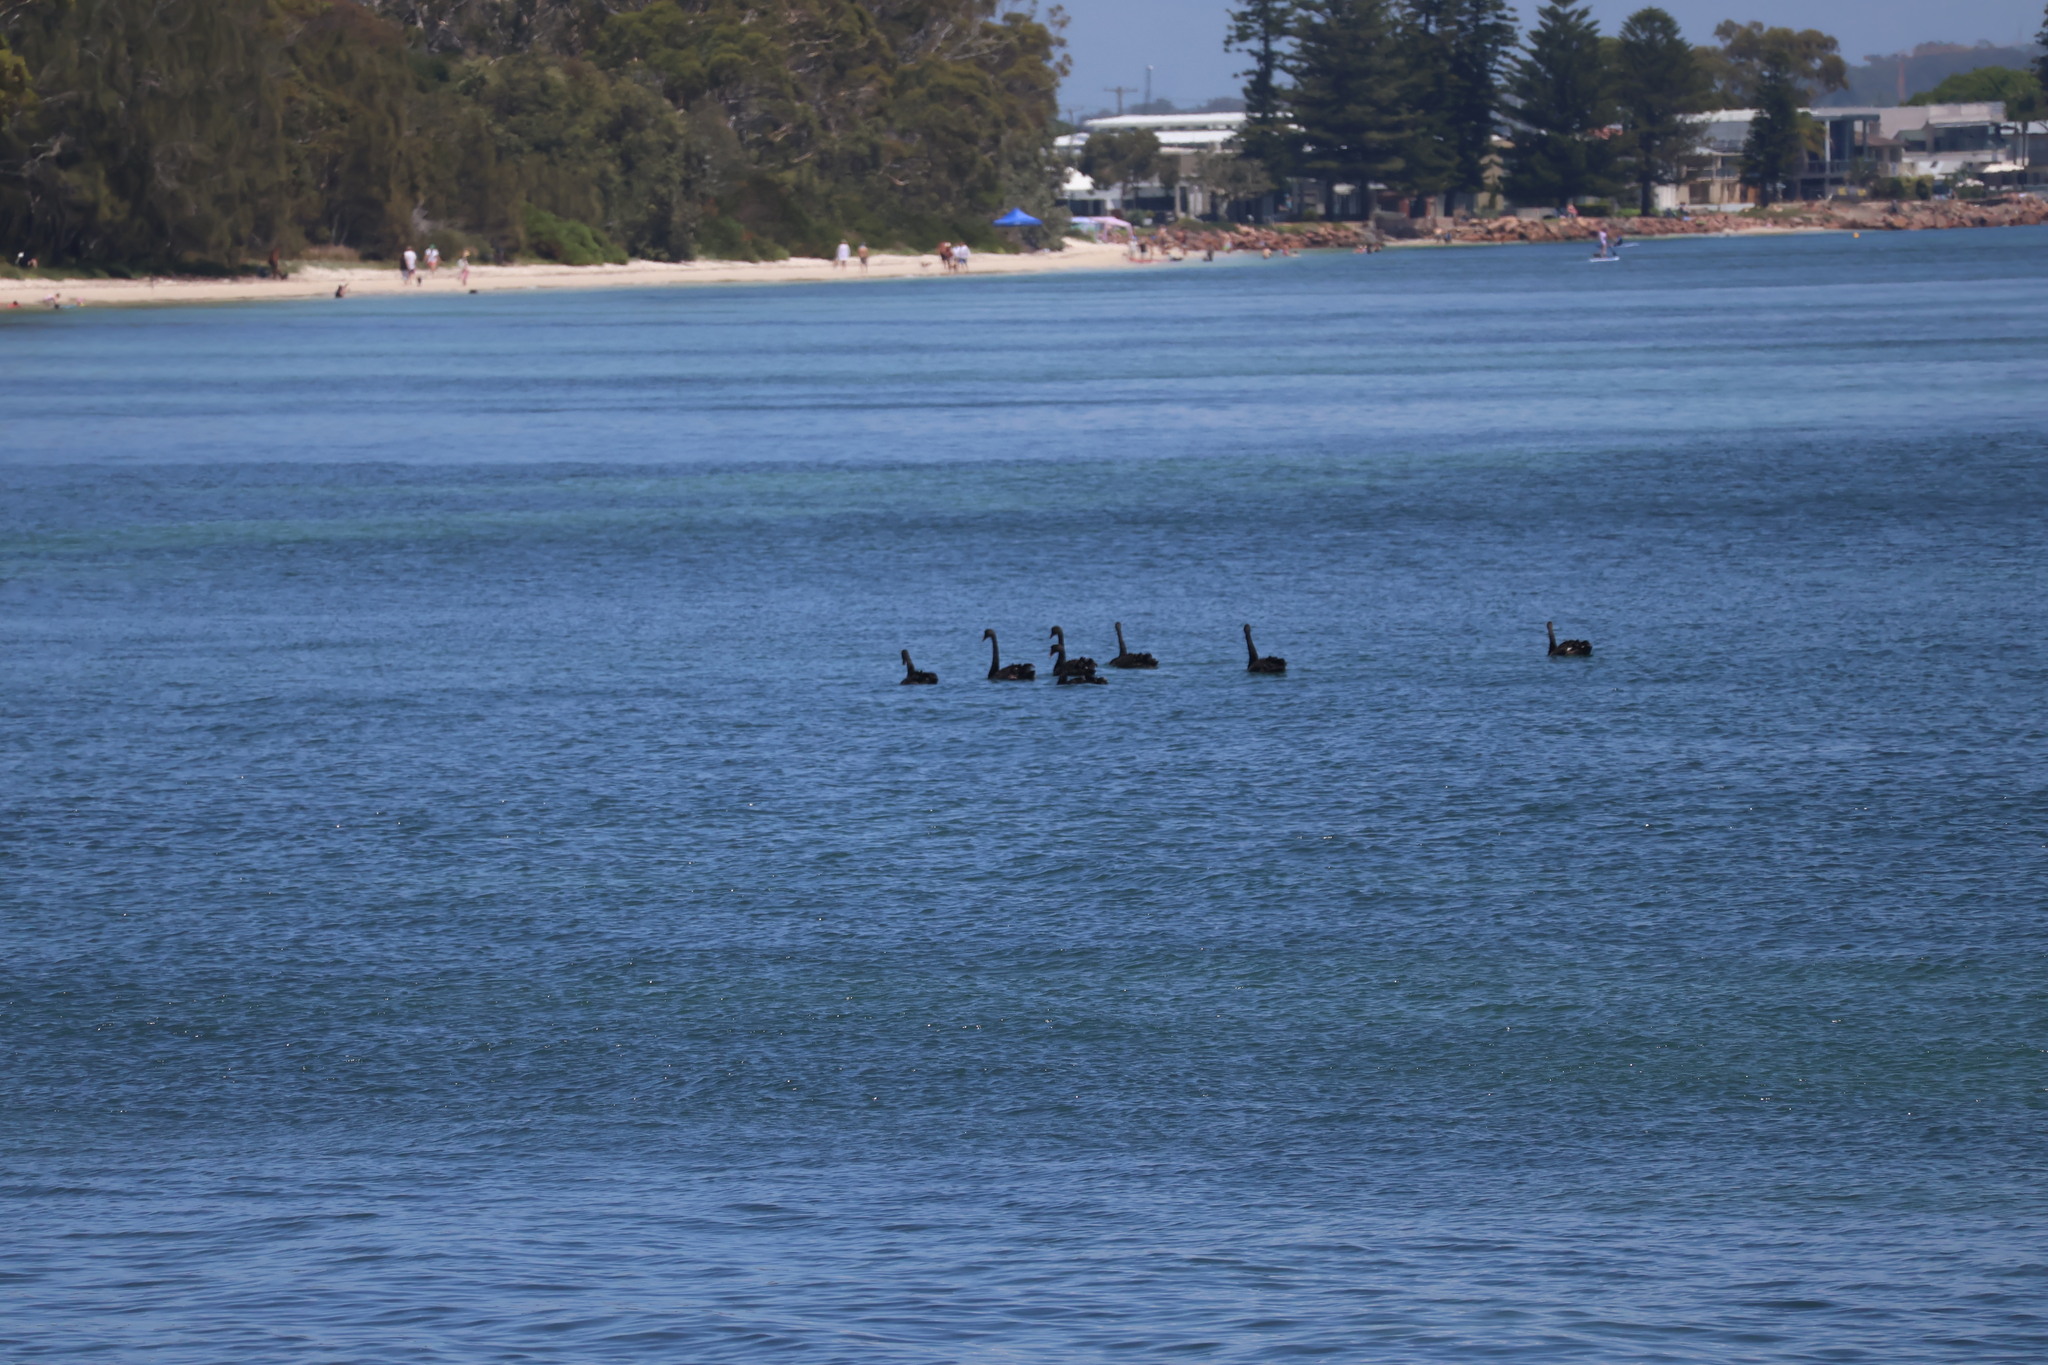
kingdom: Animalia
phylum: Chordata
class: Aves
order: Anseriformes
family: Anatidae
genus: Cygnus
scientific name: Cygnus atratus
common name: Black swan
